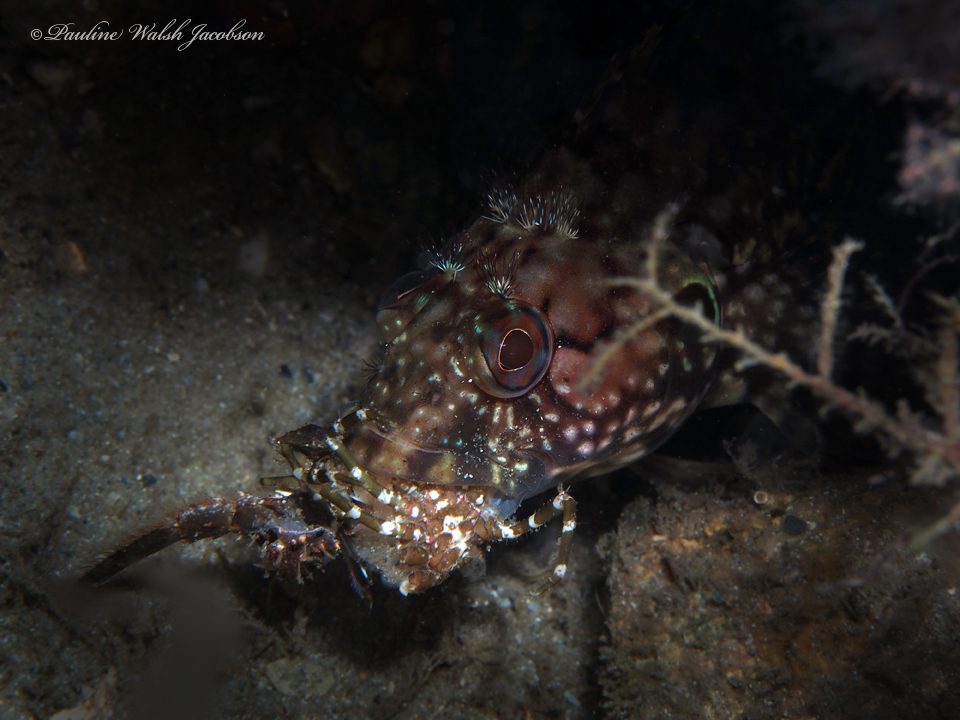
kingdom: Animalia
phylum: Chordata
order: Perciformes
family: Labrisomidae
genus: Labrisomus
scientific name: Labrisomus conditus
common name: Masquerader hairy blenny
